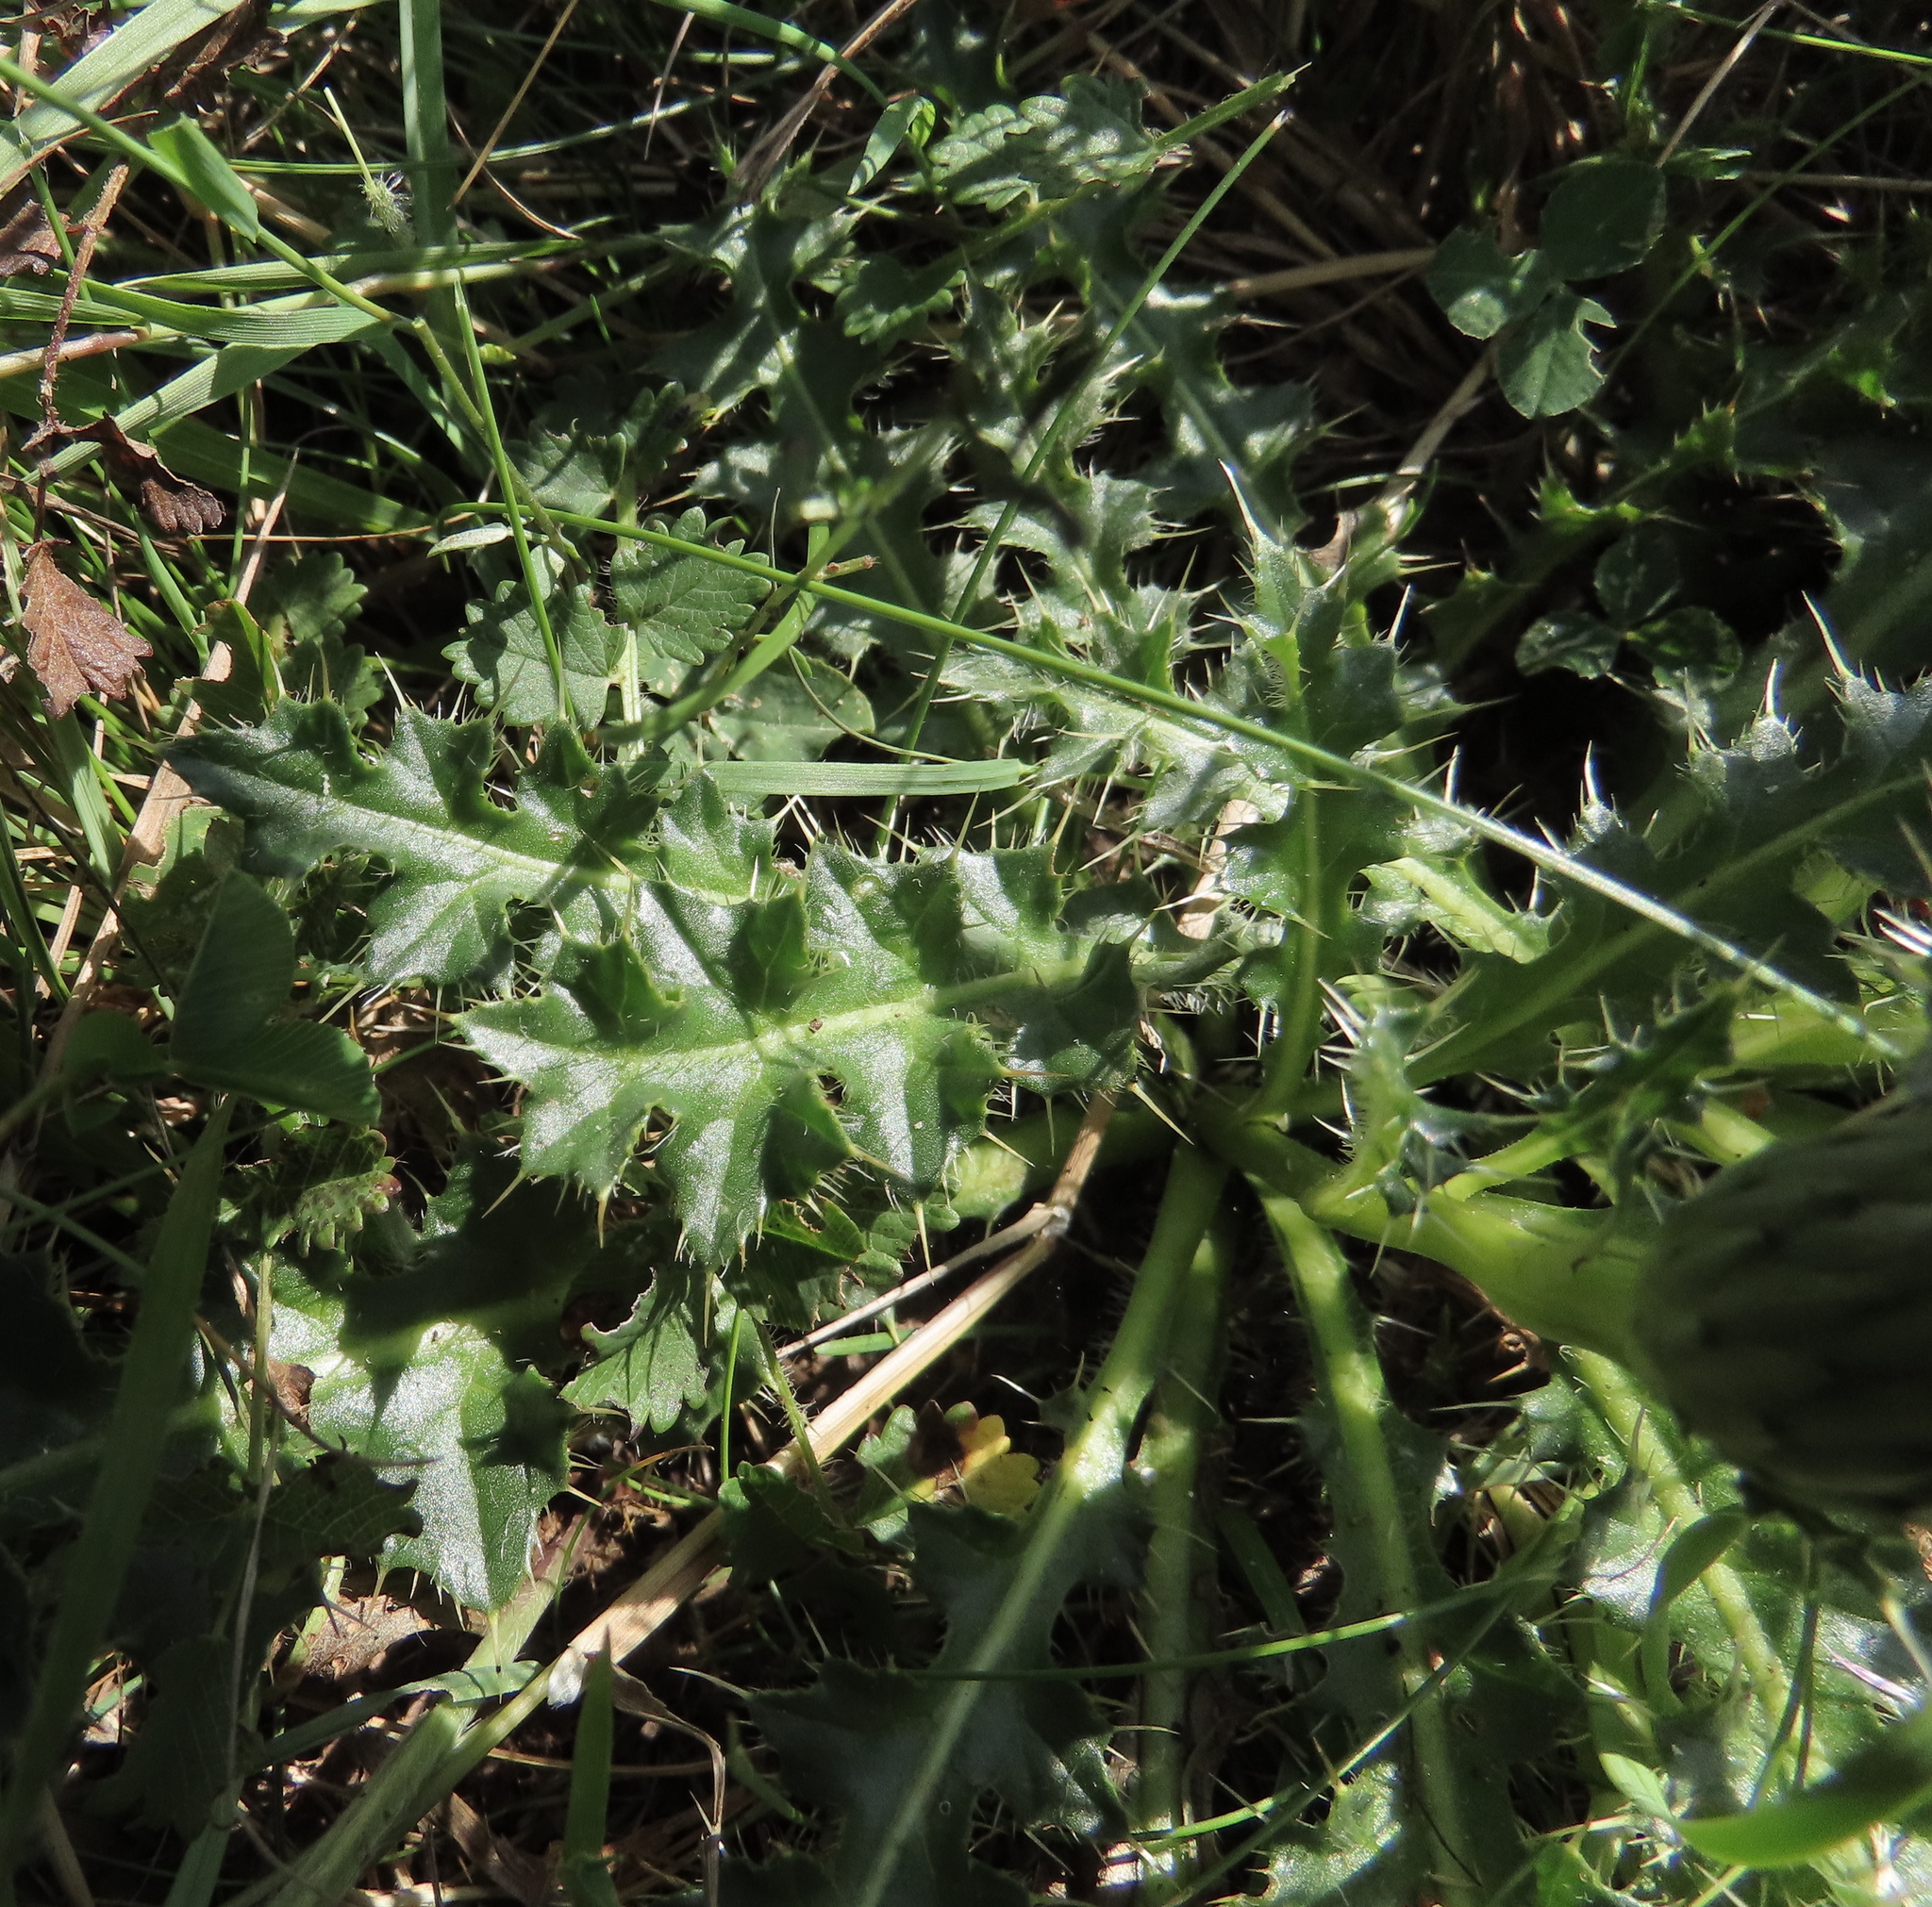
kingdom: Plantae
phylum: Tracheophyta
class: Magnoliopsida
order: Asterales
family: Asteraceae
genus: Cirsium
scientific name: Cirsium acaulon
